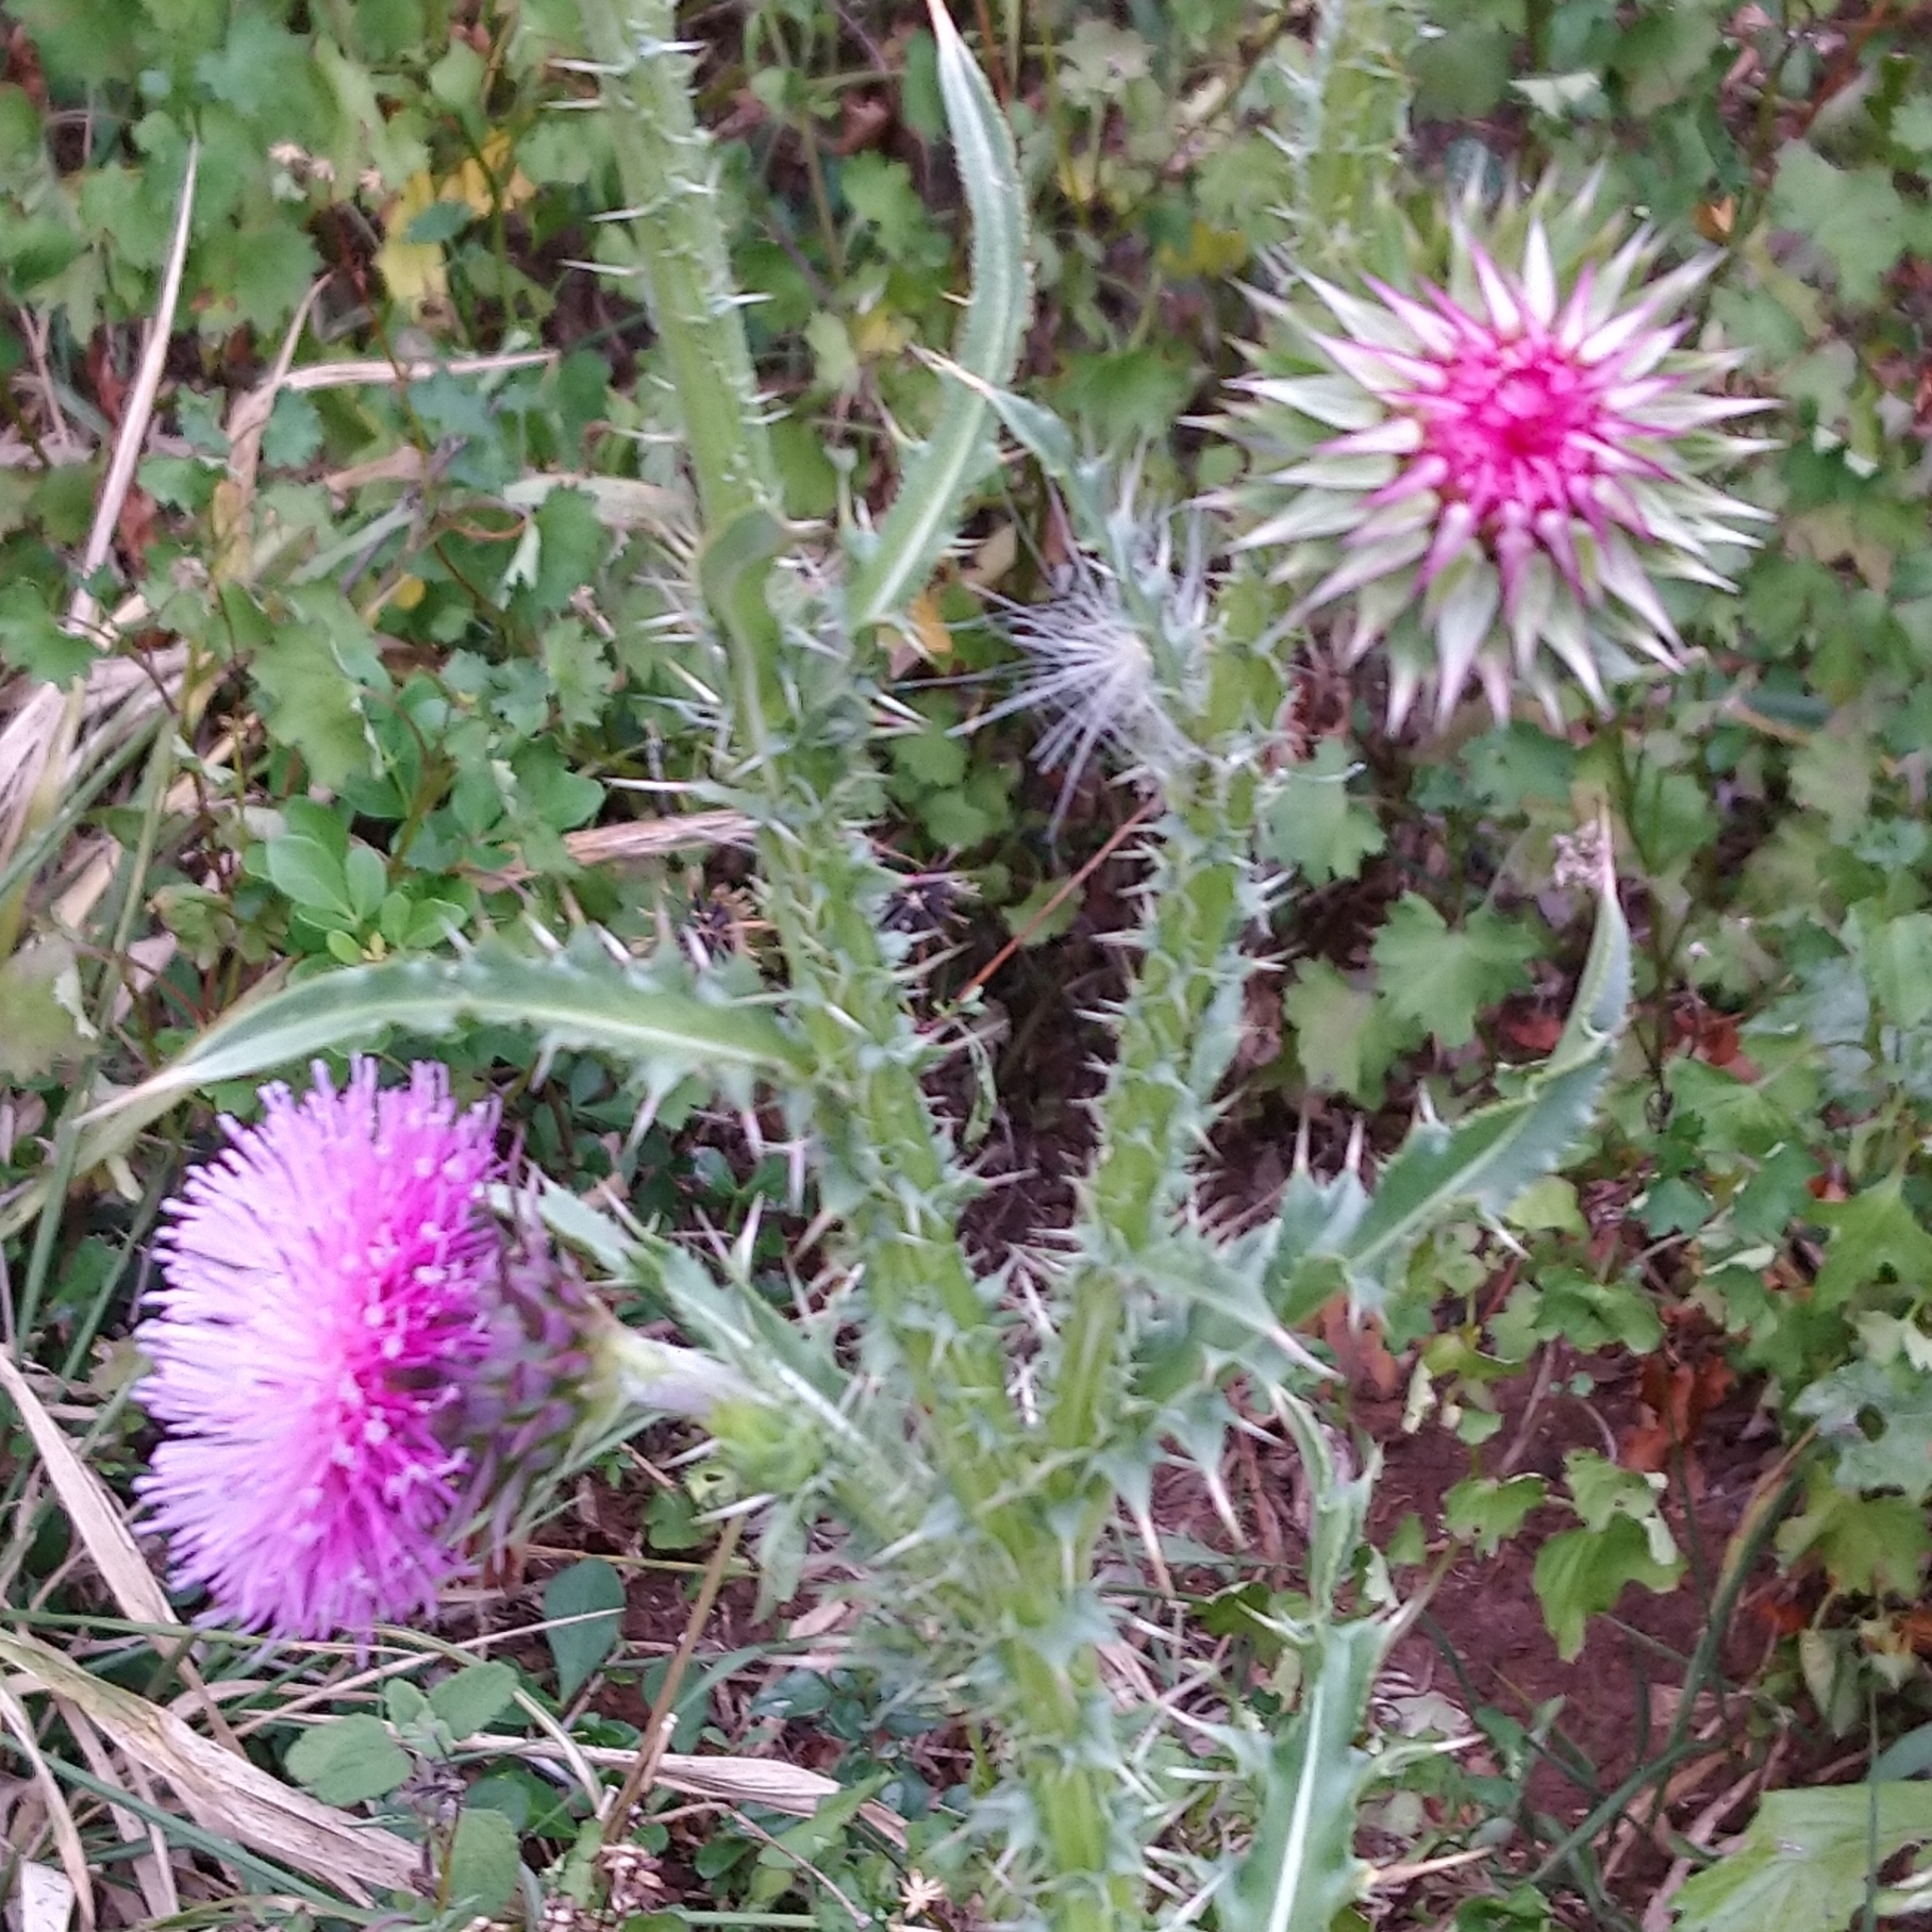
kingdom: Plantae
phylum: Tracheophyta
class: Magnoliopsida
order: Asterales
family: Asteraceae
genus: Carduus
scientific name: Carduus nutans
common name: Musk thistle
